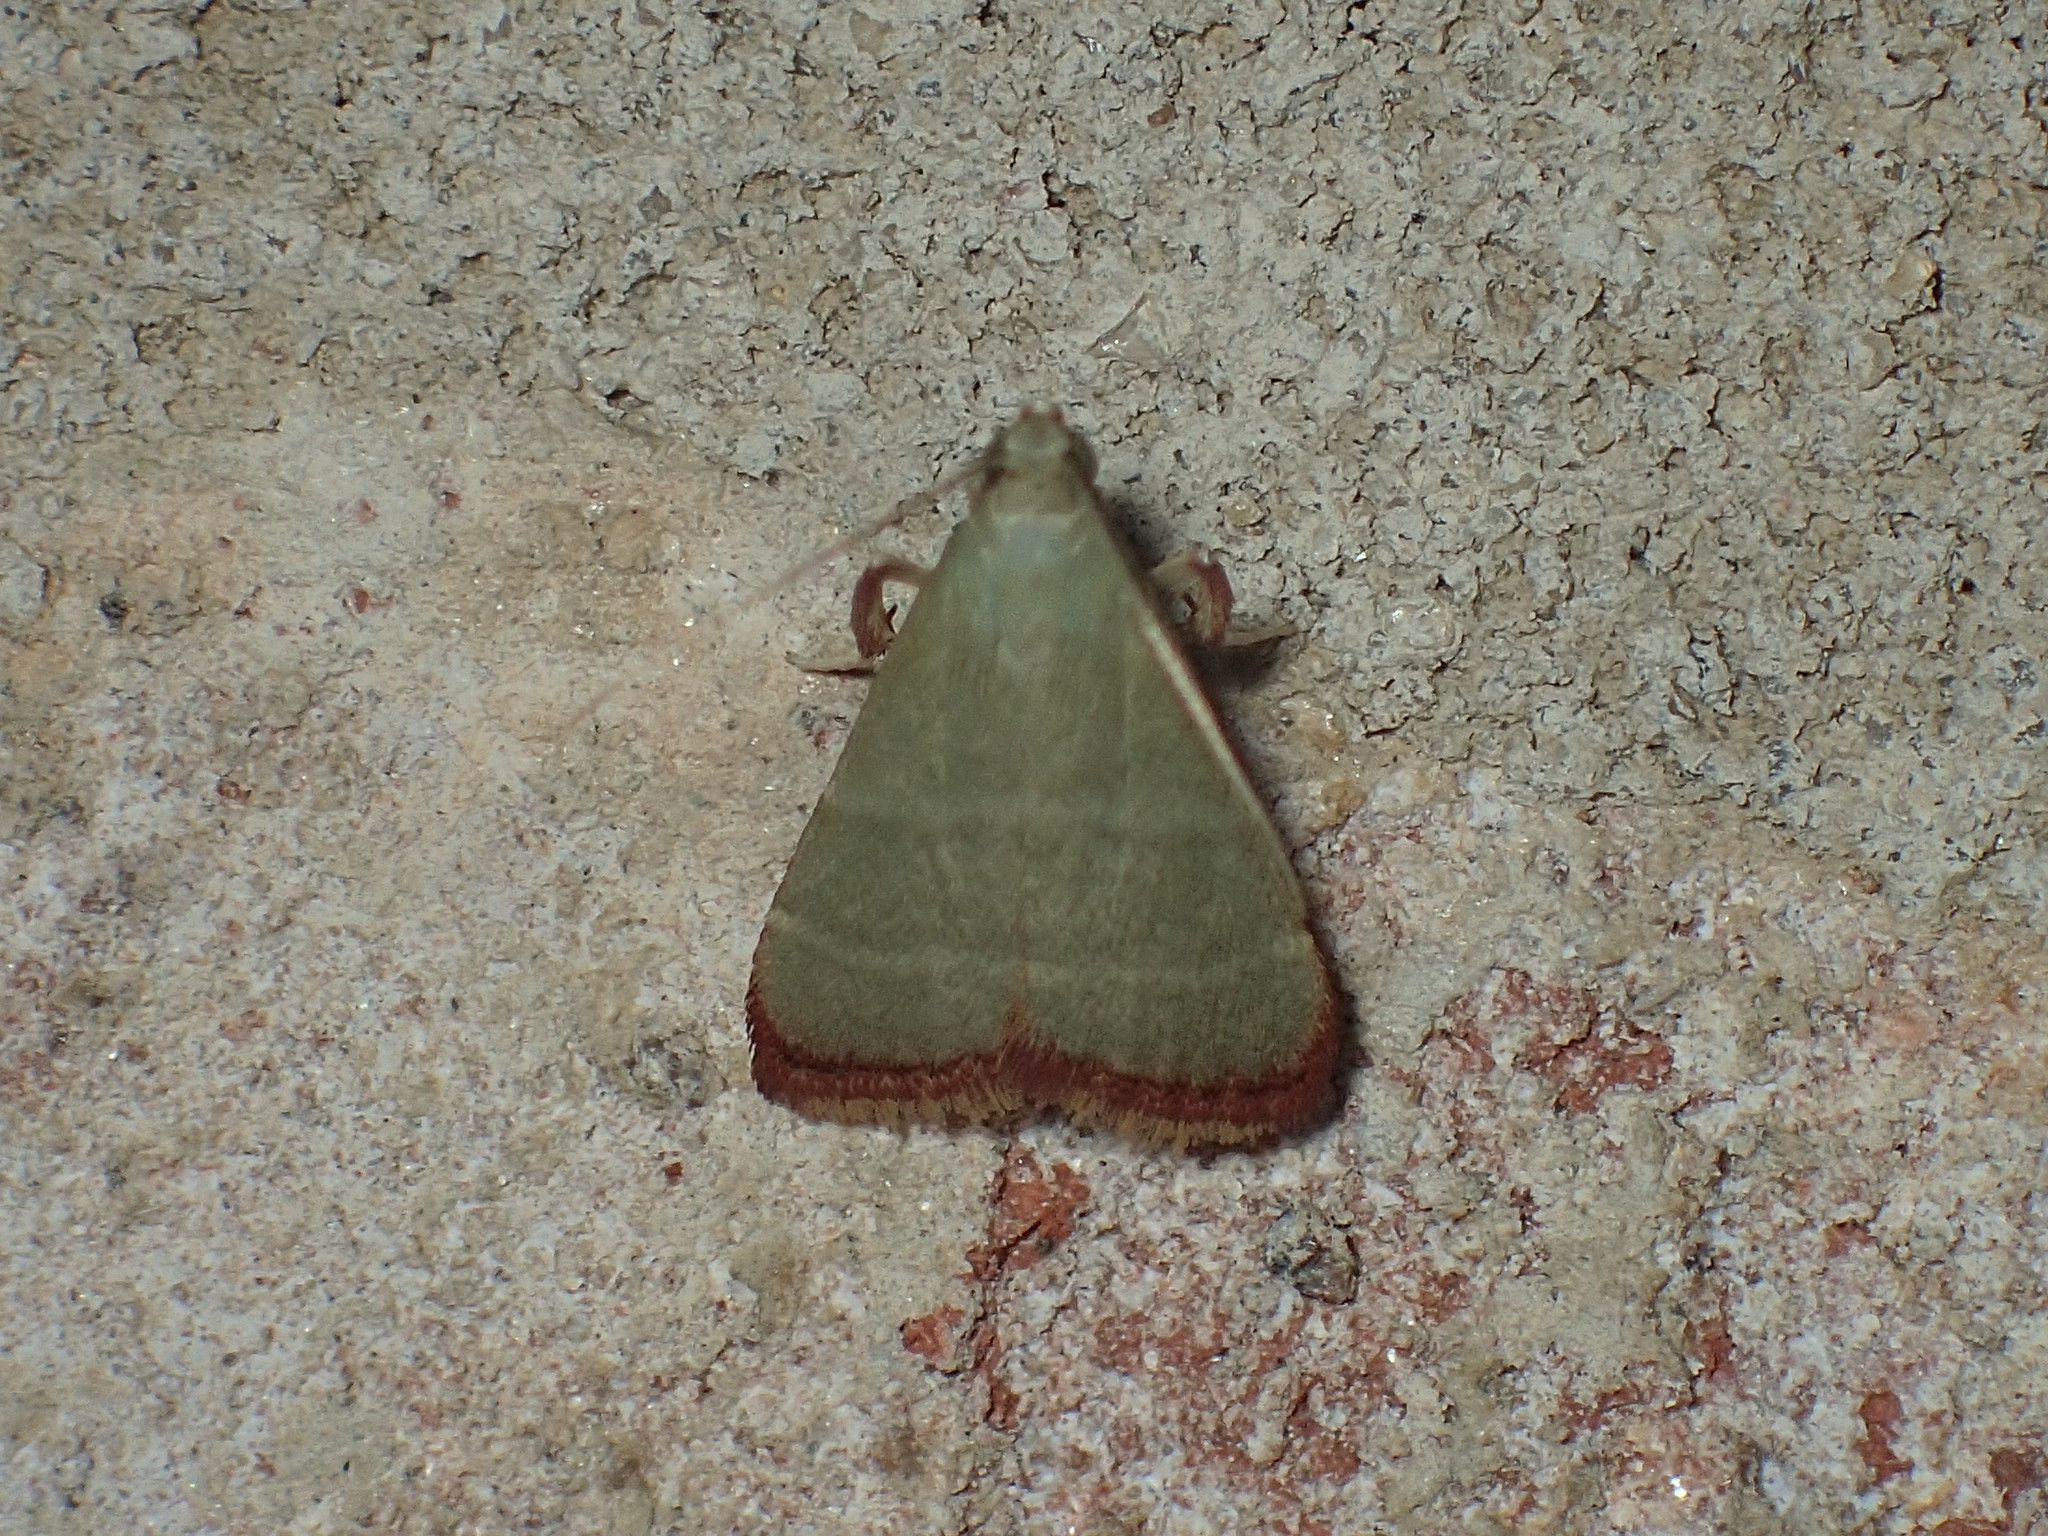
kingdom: Animalia
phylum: Arthropoda
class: Insecta
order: Lepidoptera
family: Pyralidae
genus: Arta
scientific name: Arta olivalis
